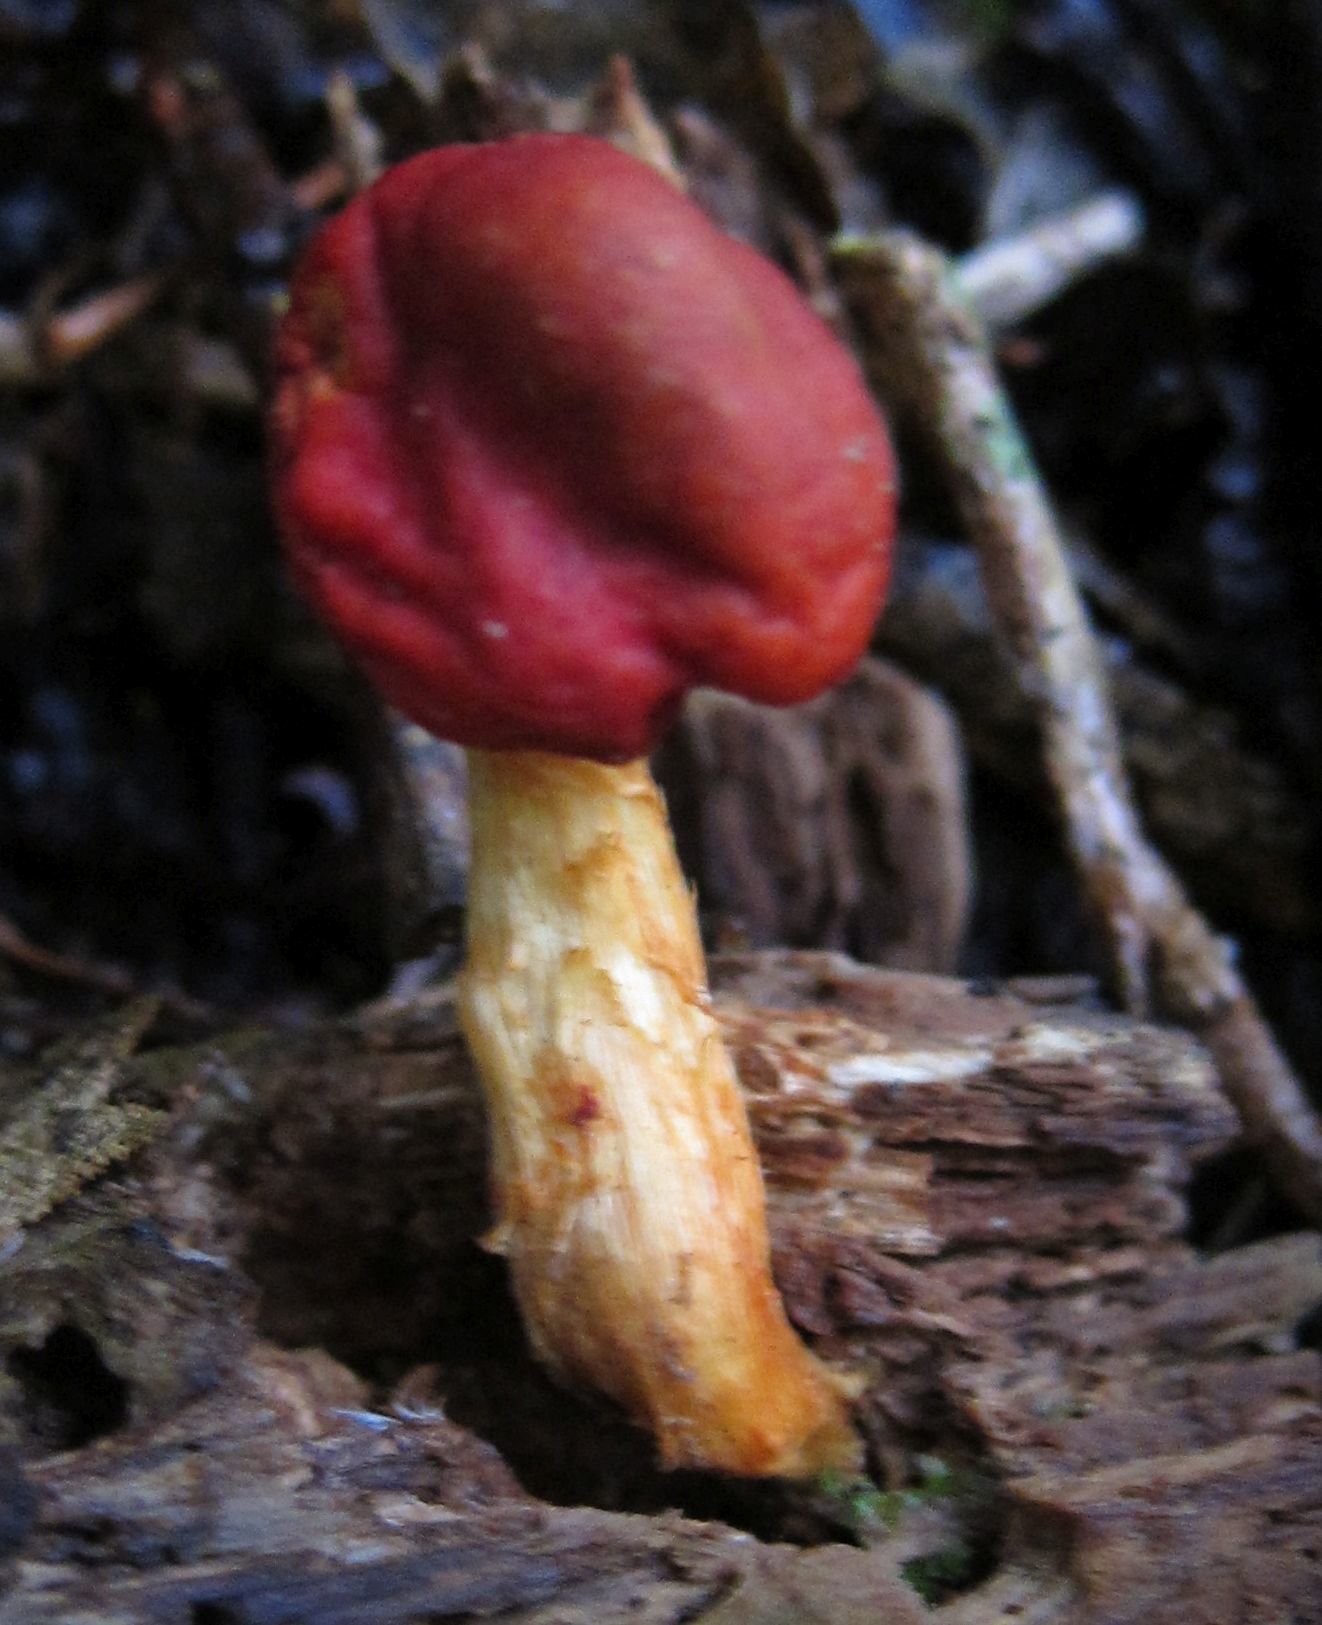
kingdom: Fungi
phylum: Basidiomycota
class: Agaricomycetes
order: Agaricales
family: Strophariaceae
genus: Leratiomyces
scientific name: Leratiomyces erythrocephalus
